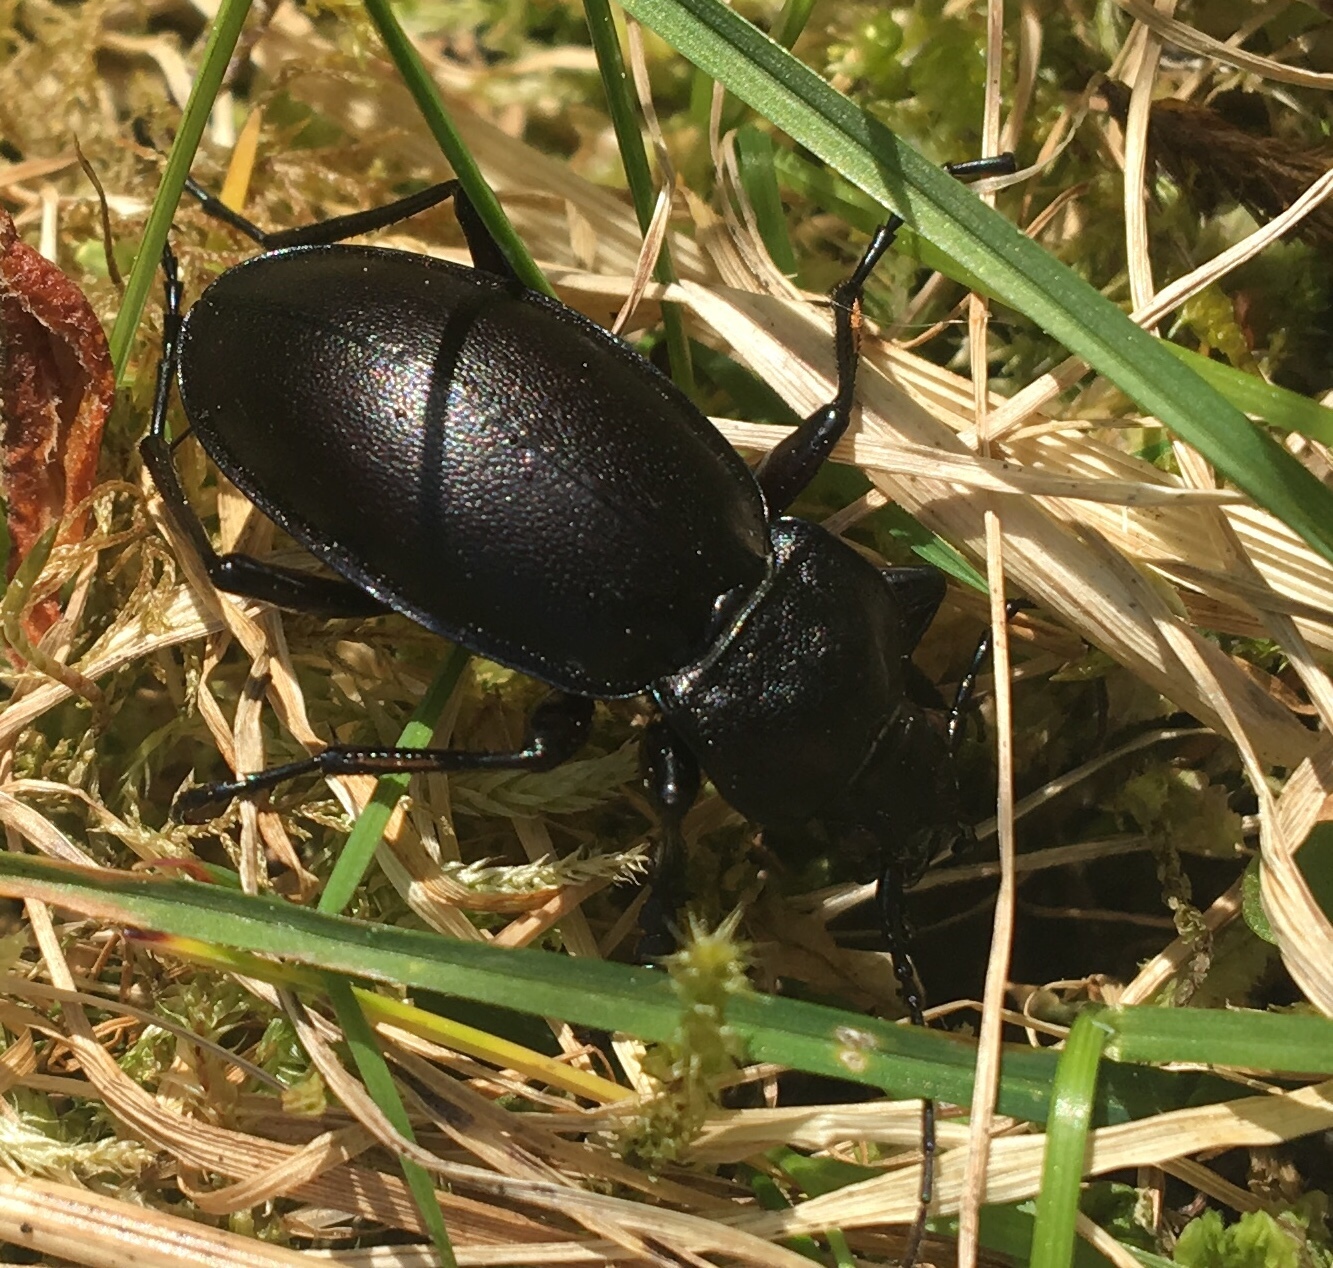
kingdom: Animalia
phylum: Arthropoda
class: Insecta
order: Coleoptera
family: Carabidae
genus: Carabus
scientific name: Carabus violaceus
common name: Violet ground beetle
